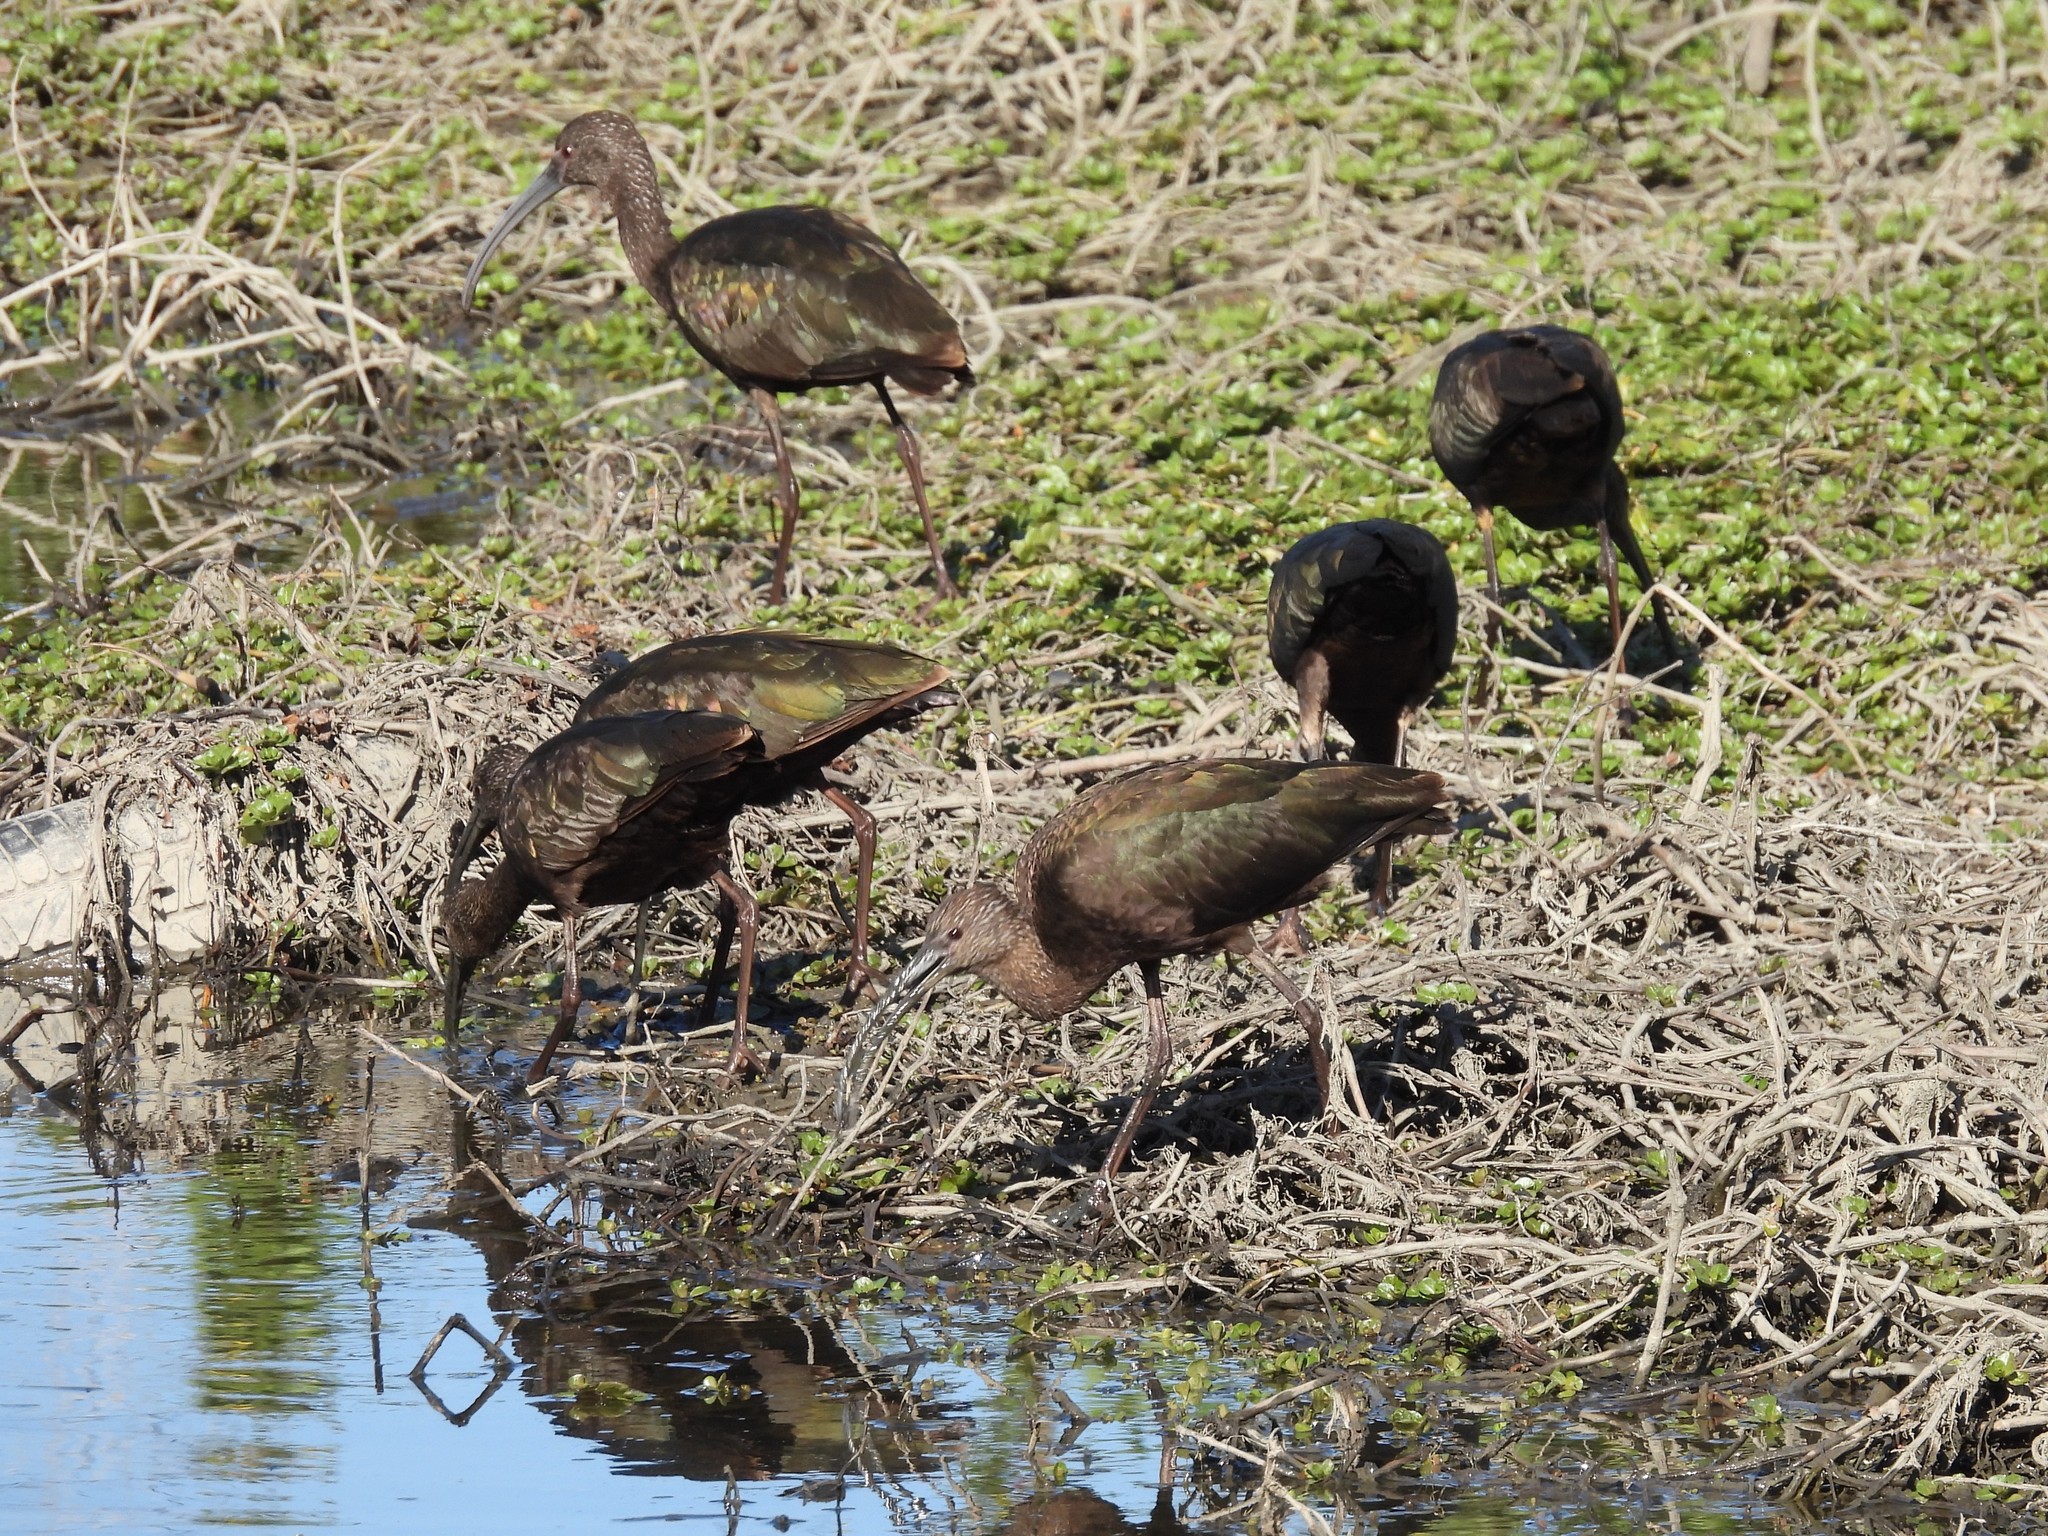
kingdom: Animalia
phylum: Chordata
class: Aves
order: Pelecaniformes
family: Threskiornithidae
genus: Plegadis
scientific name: Plegadis chihi
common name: White-faced ibis
